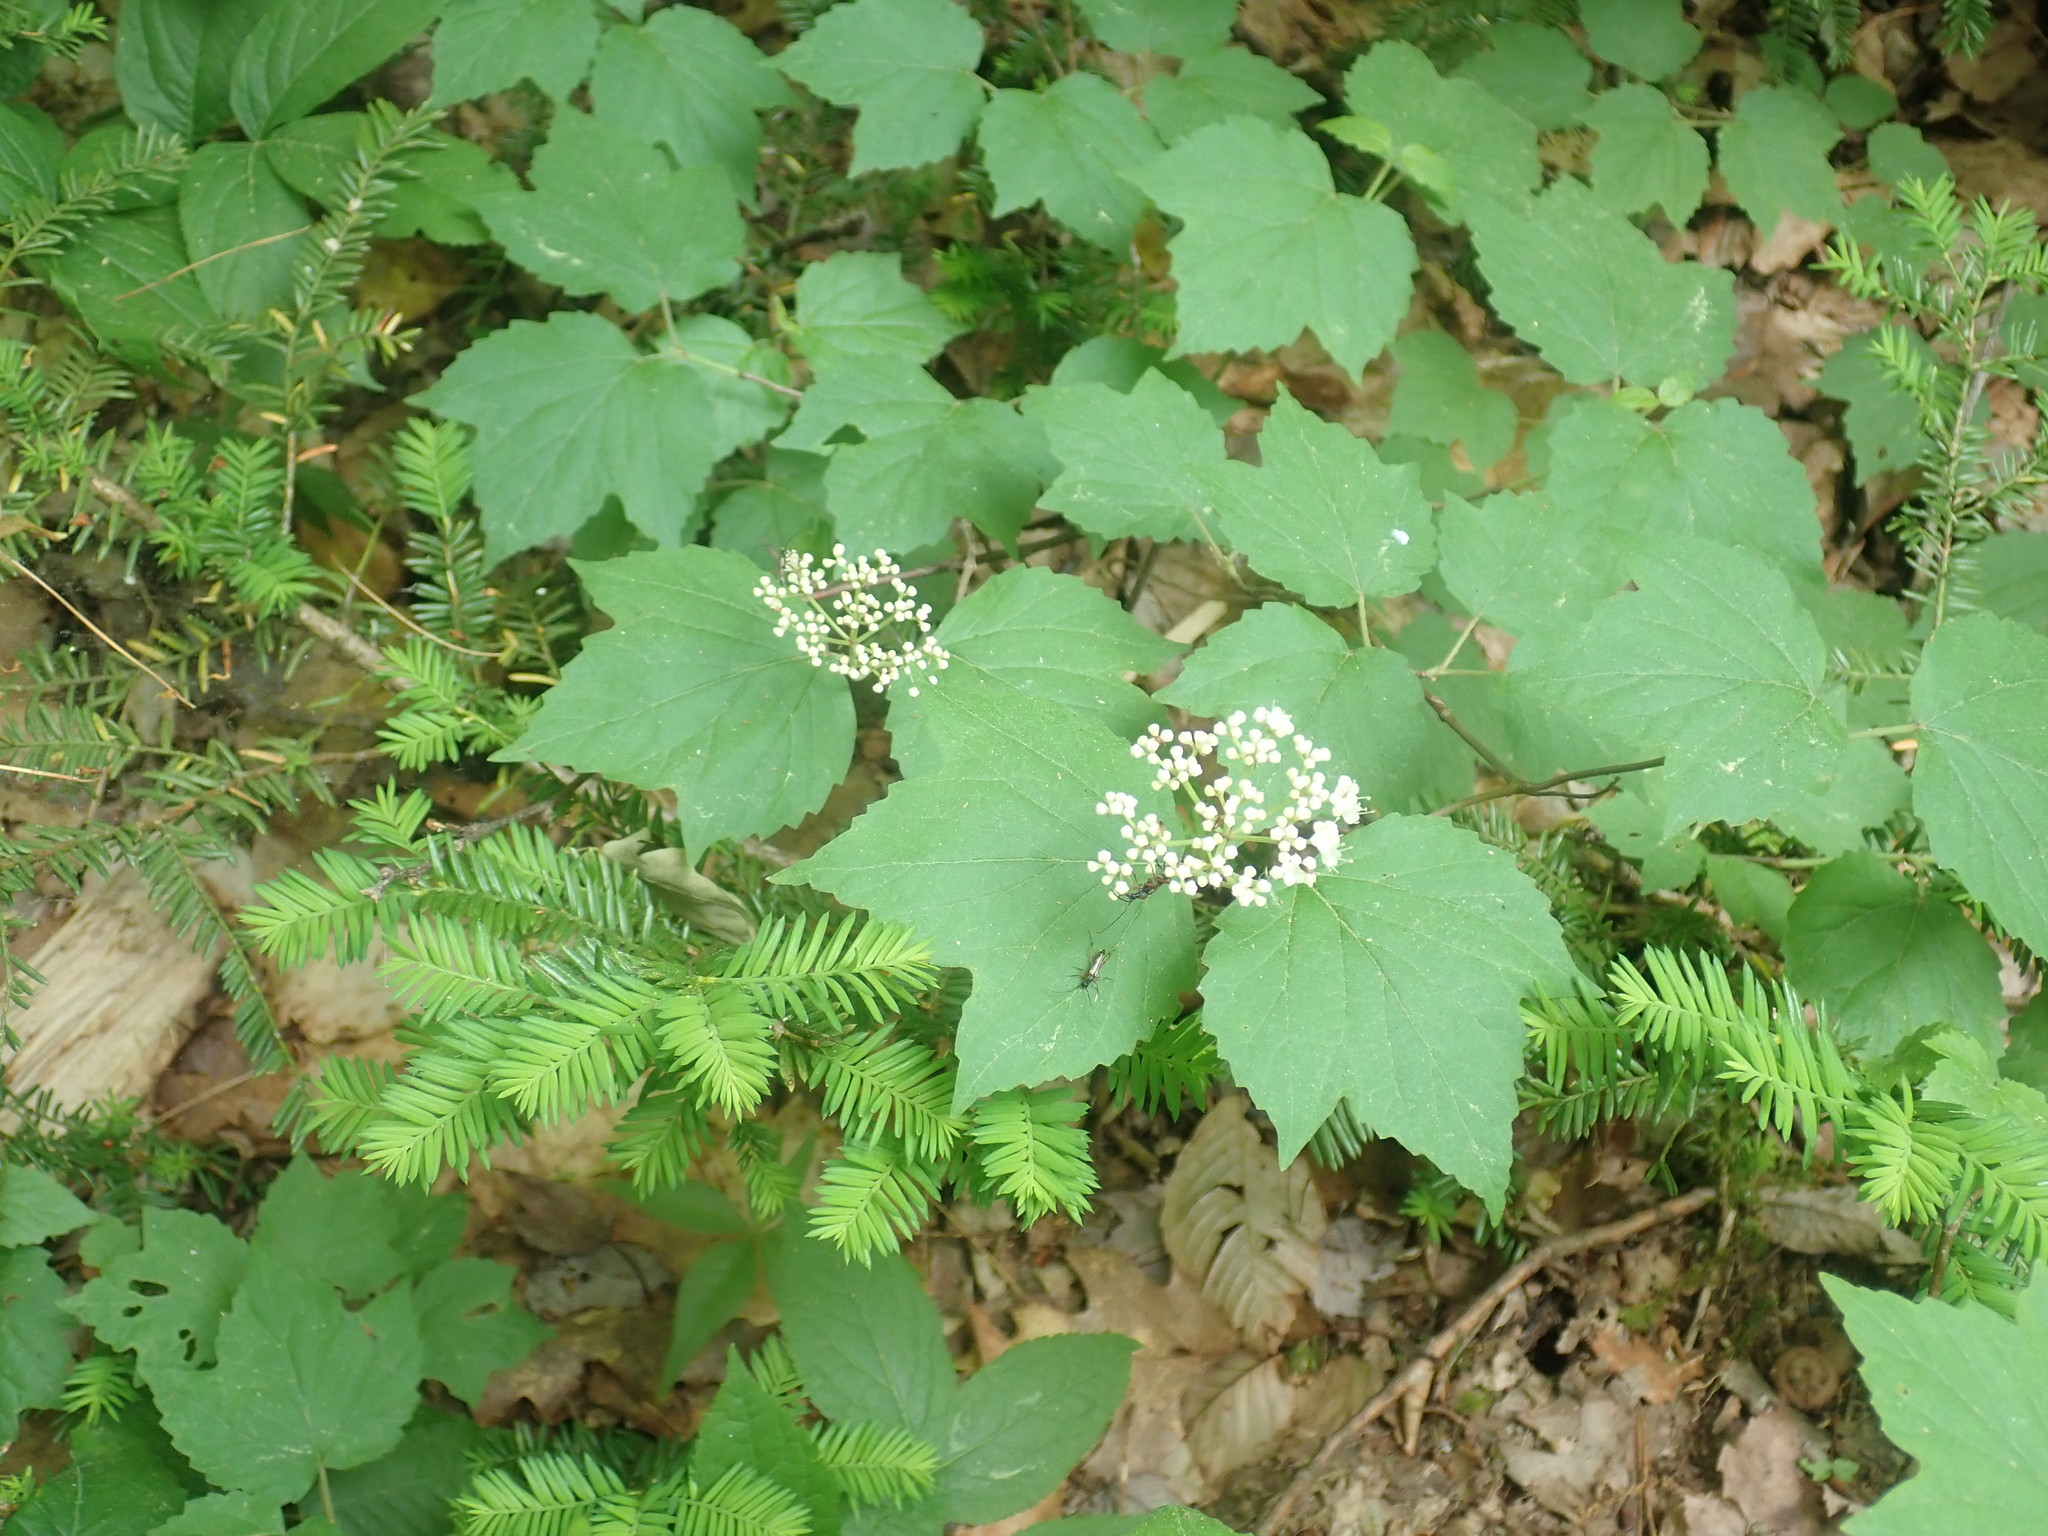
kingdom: Plantae
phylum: Tracheophyta
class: Magnoliopsida
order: Dipsacales
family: Viburnaceae
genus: Viburnum
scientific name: Viburnum acerifolium
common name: Dockmackie
